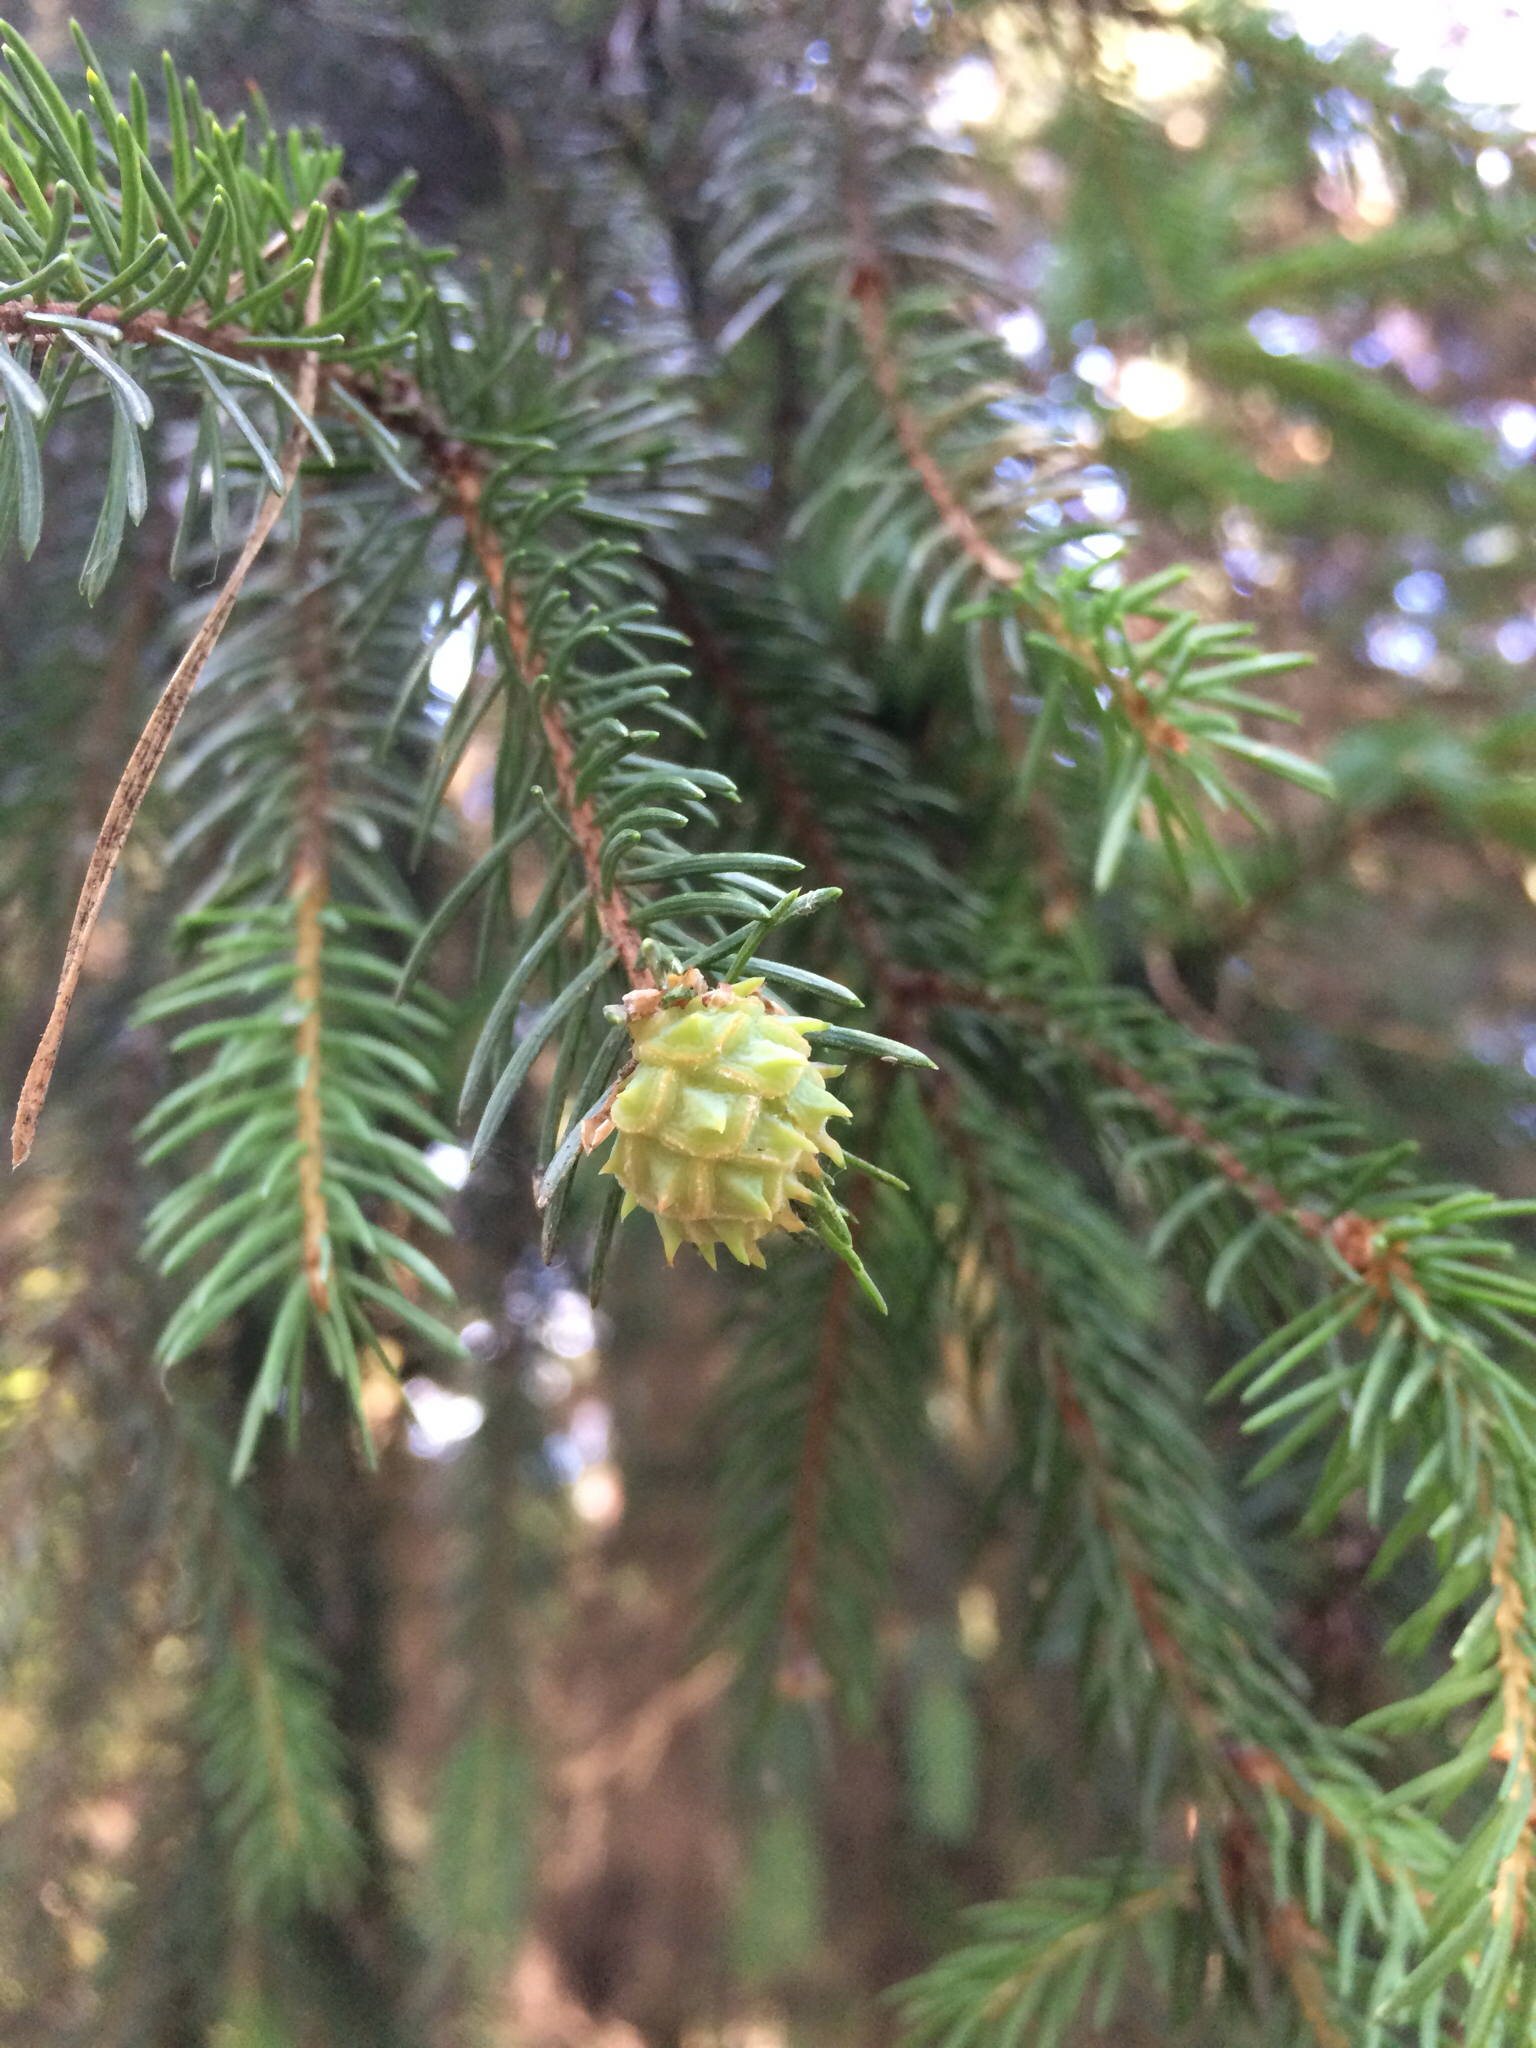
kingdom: Plantae
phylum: Tracheophyta
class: Pinopsida
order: Pinales
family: Pinaceae
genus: Picea
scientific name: Picea abies
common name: Norway spruce
